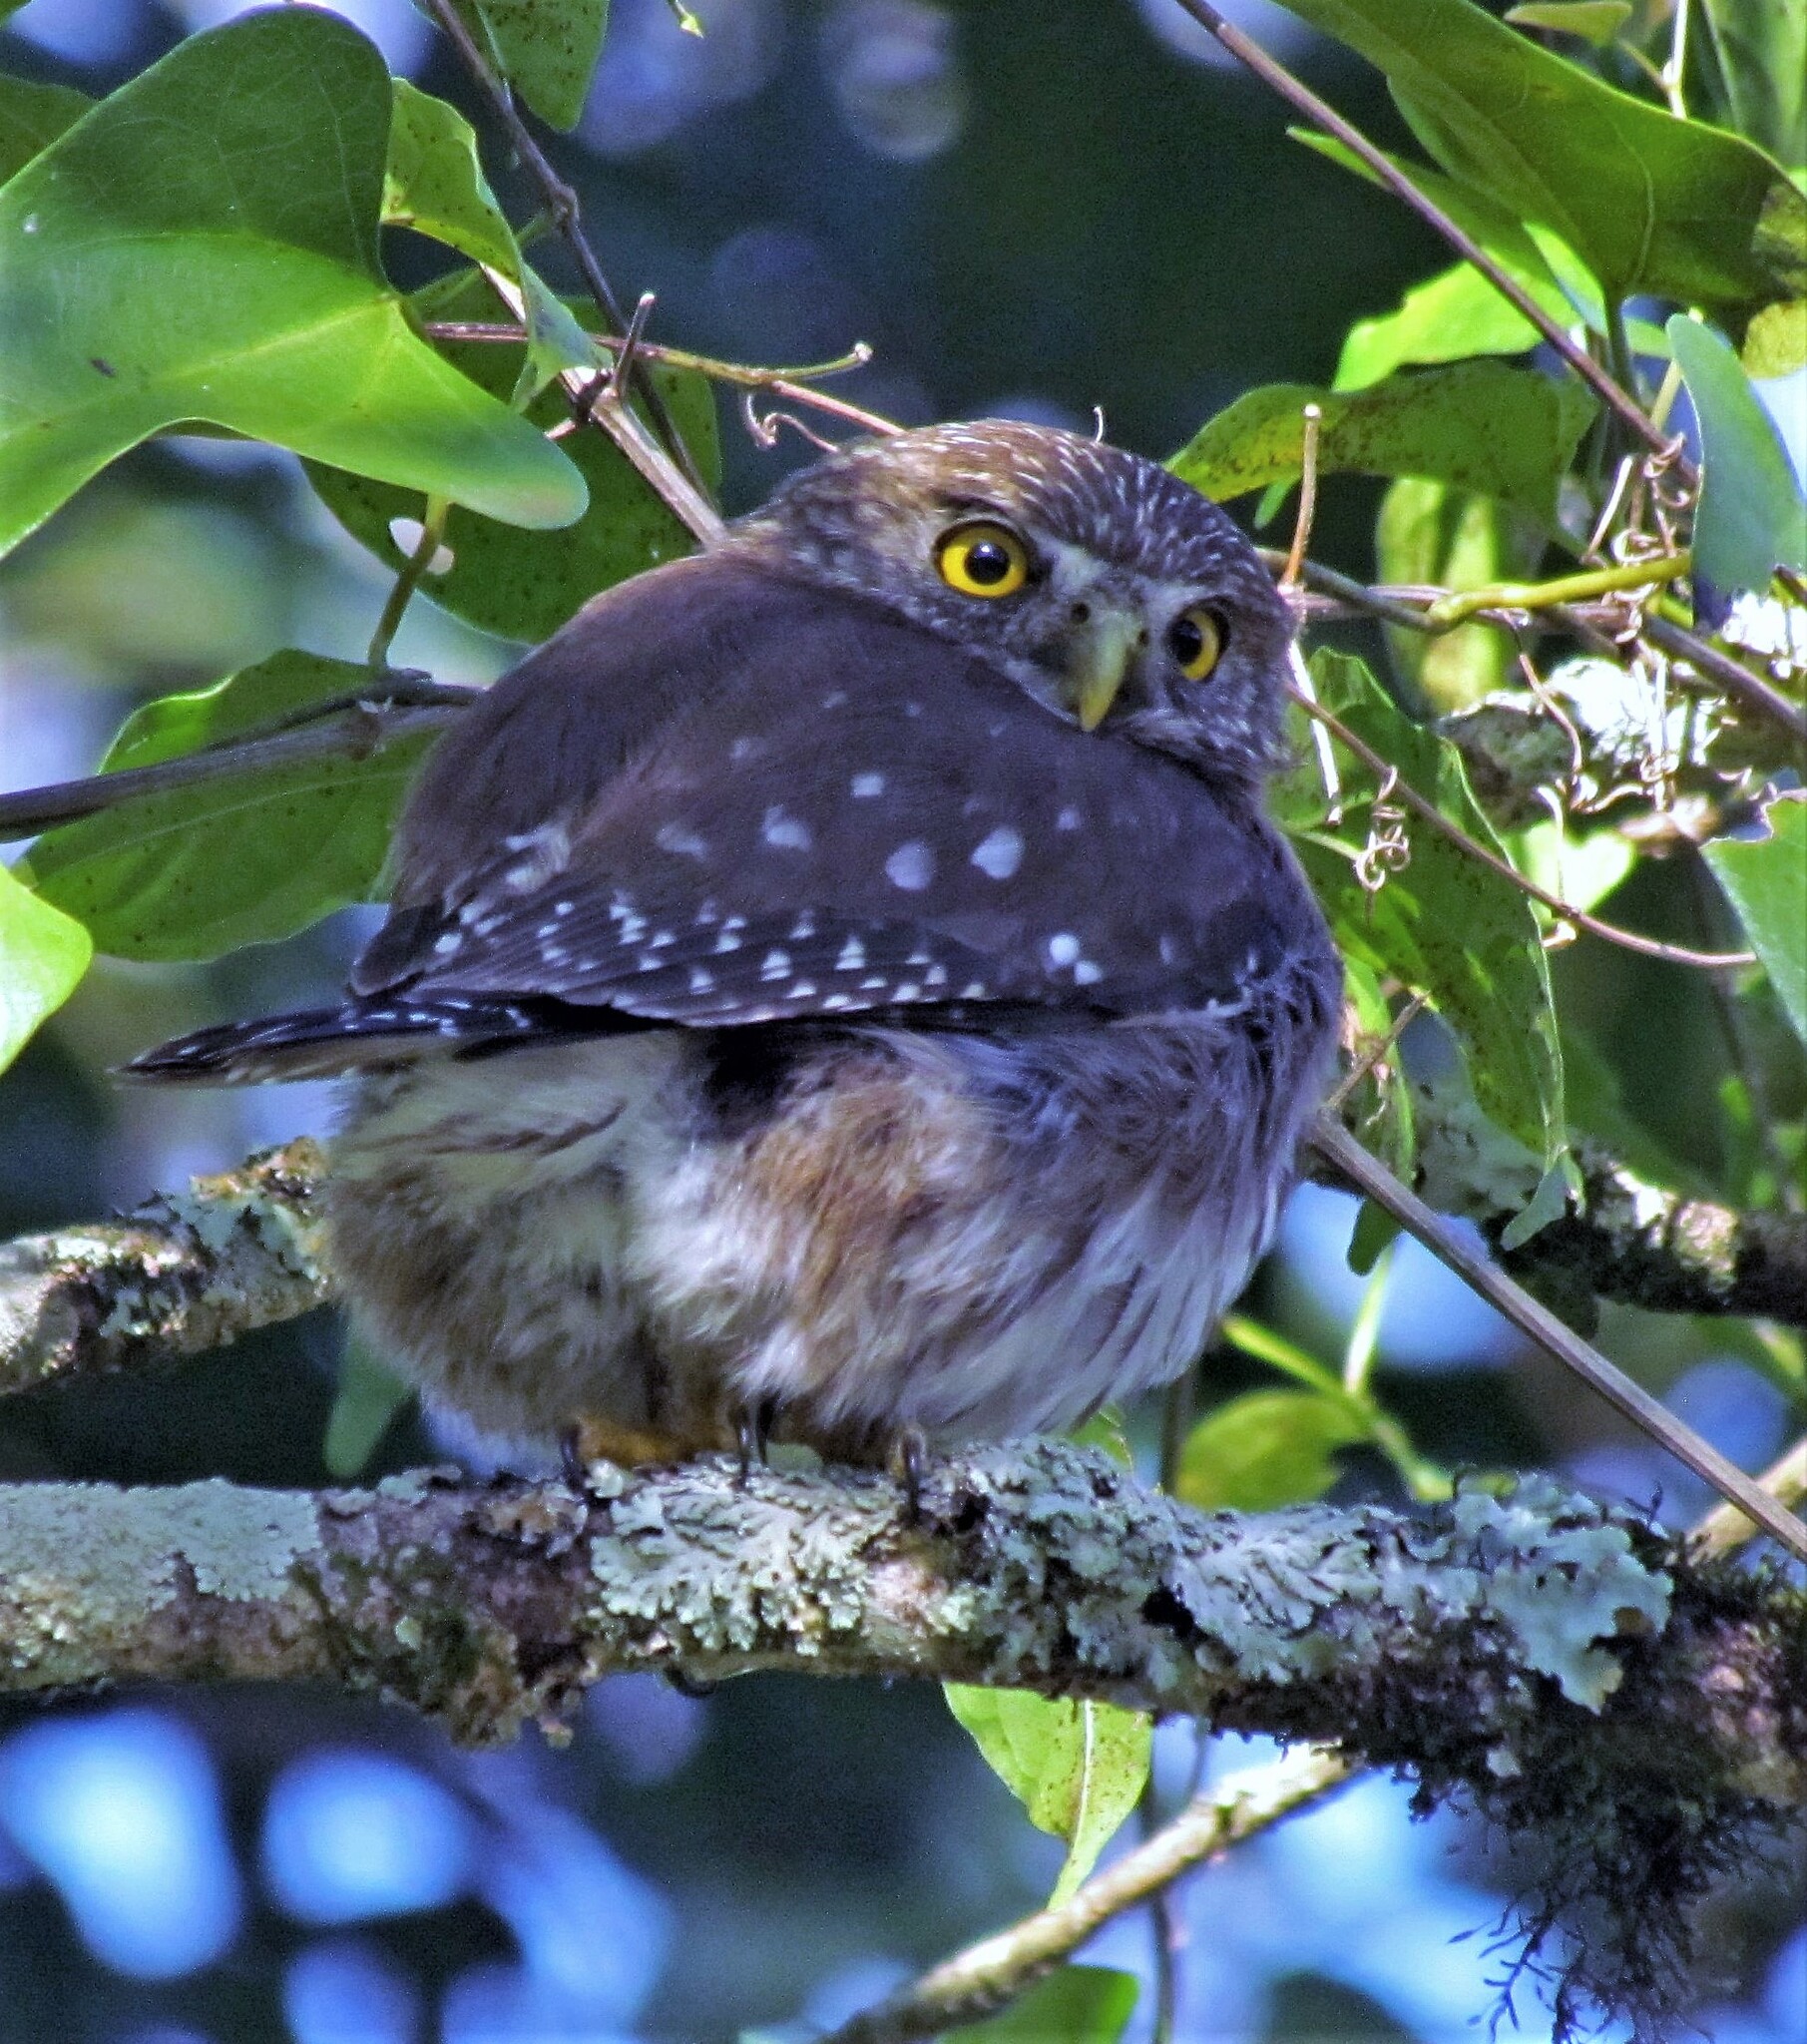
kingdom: Animalia
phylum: Chordata
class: Aves
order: Strigiformes
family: Strigidae
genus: Glaucidium
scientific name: Glaucidium brasilianum
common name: Ferruginous pygmy-owl
